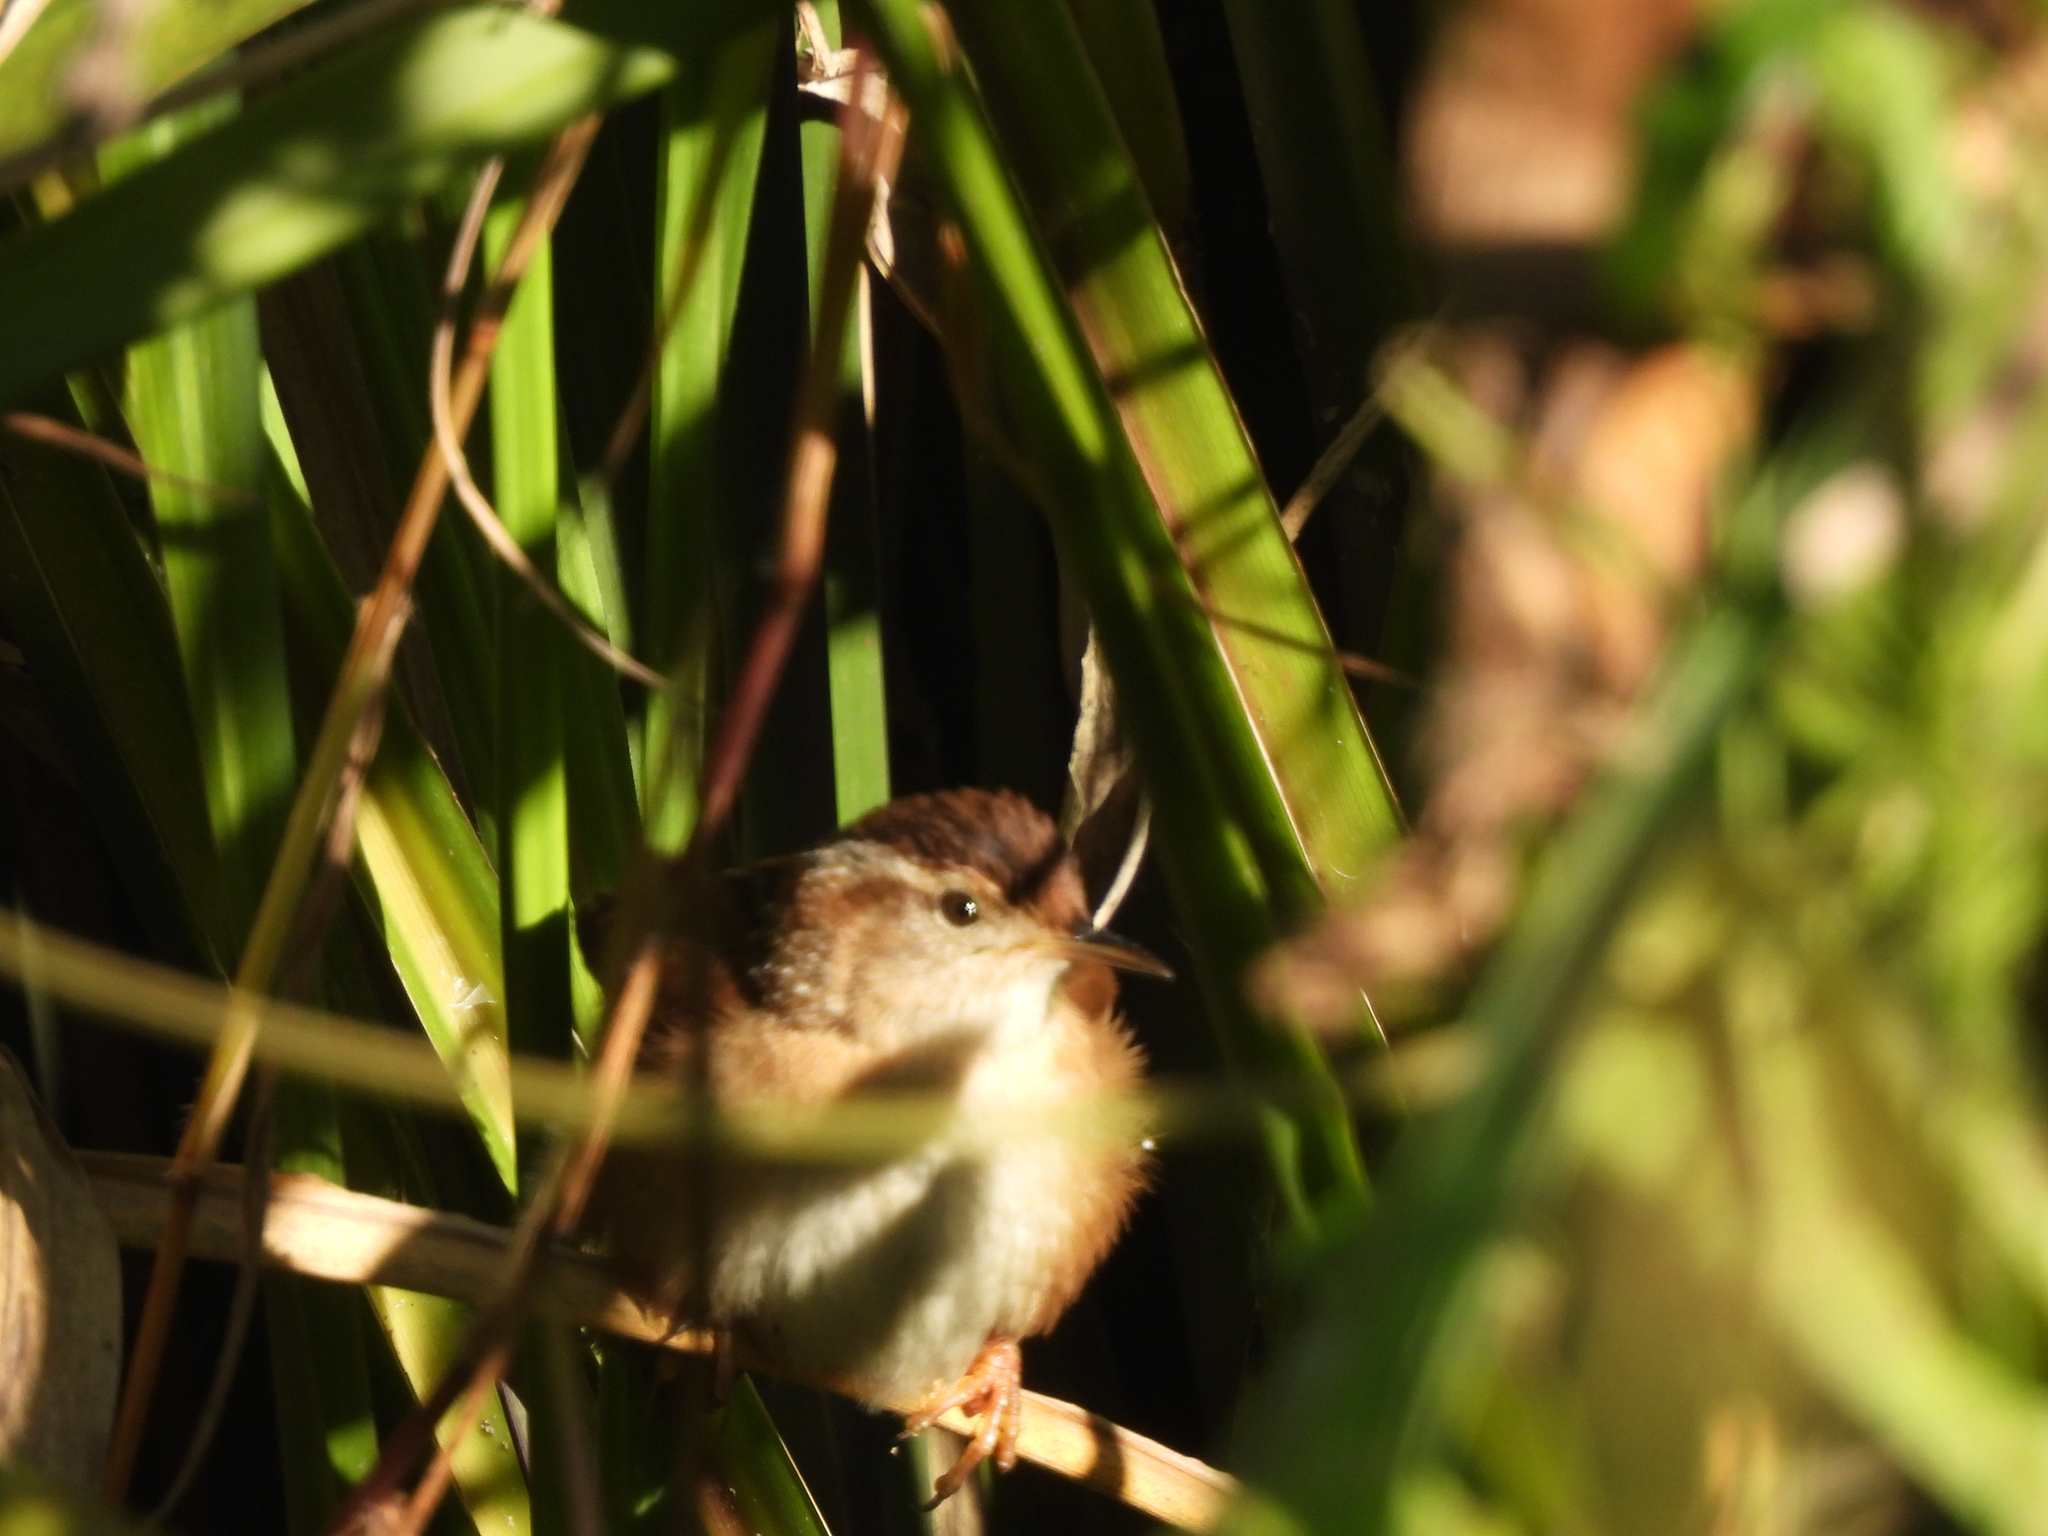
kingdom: Animalia
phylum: Chordata
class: Aves
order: Passeriformes
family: Troglodytidae
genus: Cistothorus
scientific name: Cistothorus palustris
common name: Marsh wren
